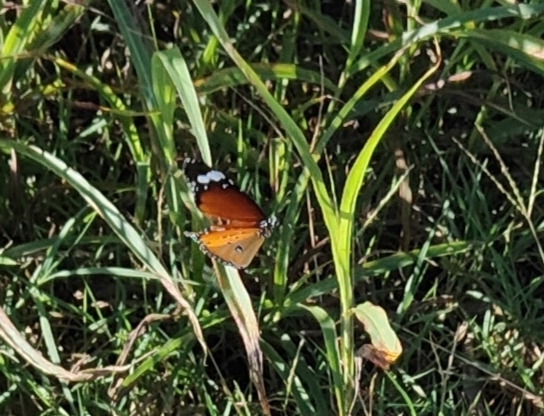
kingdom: Animalia
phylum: Arthropoda
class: Insecta
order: Lepidoptera
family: Nymphalidae
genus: Danaus
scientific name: Danaus chrysippus
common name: Plain tiger
